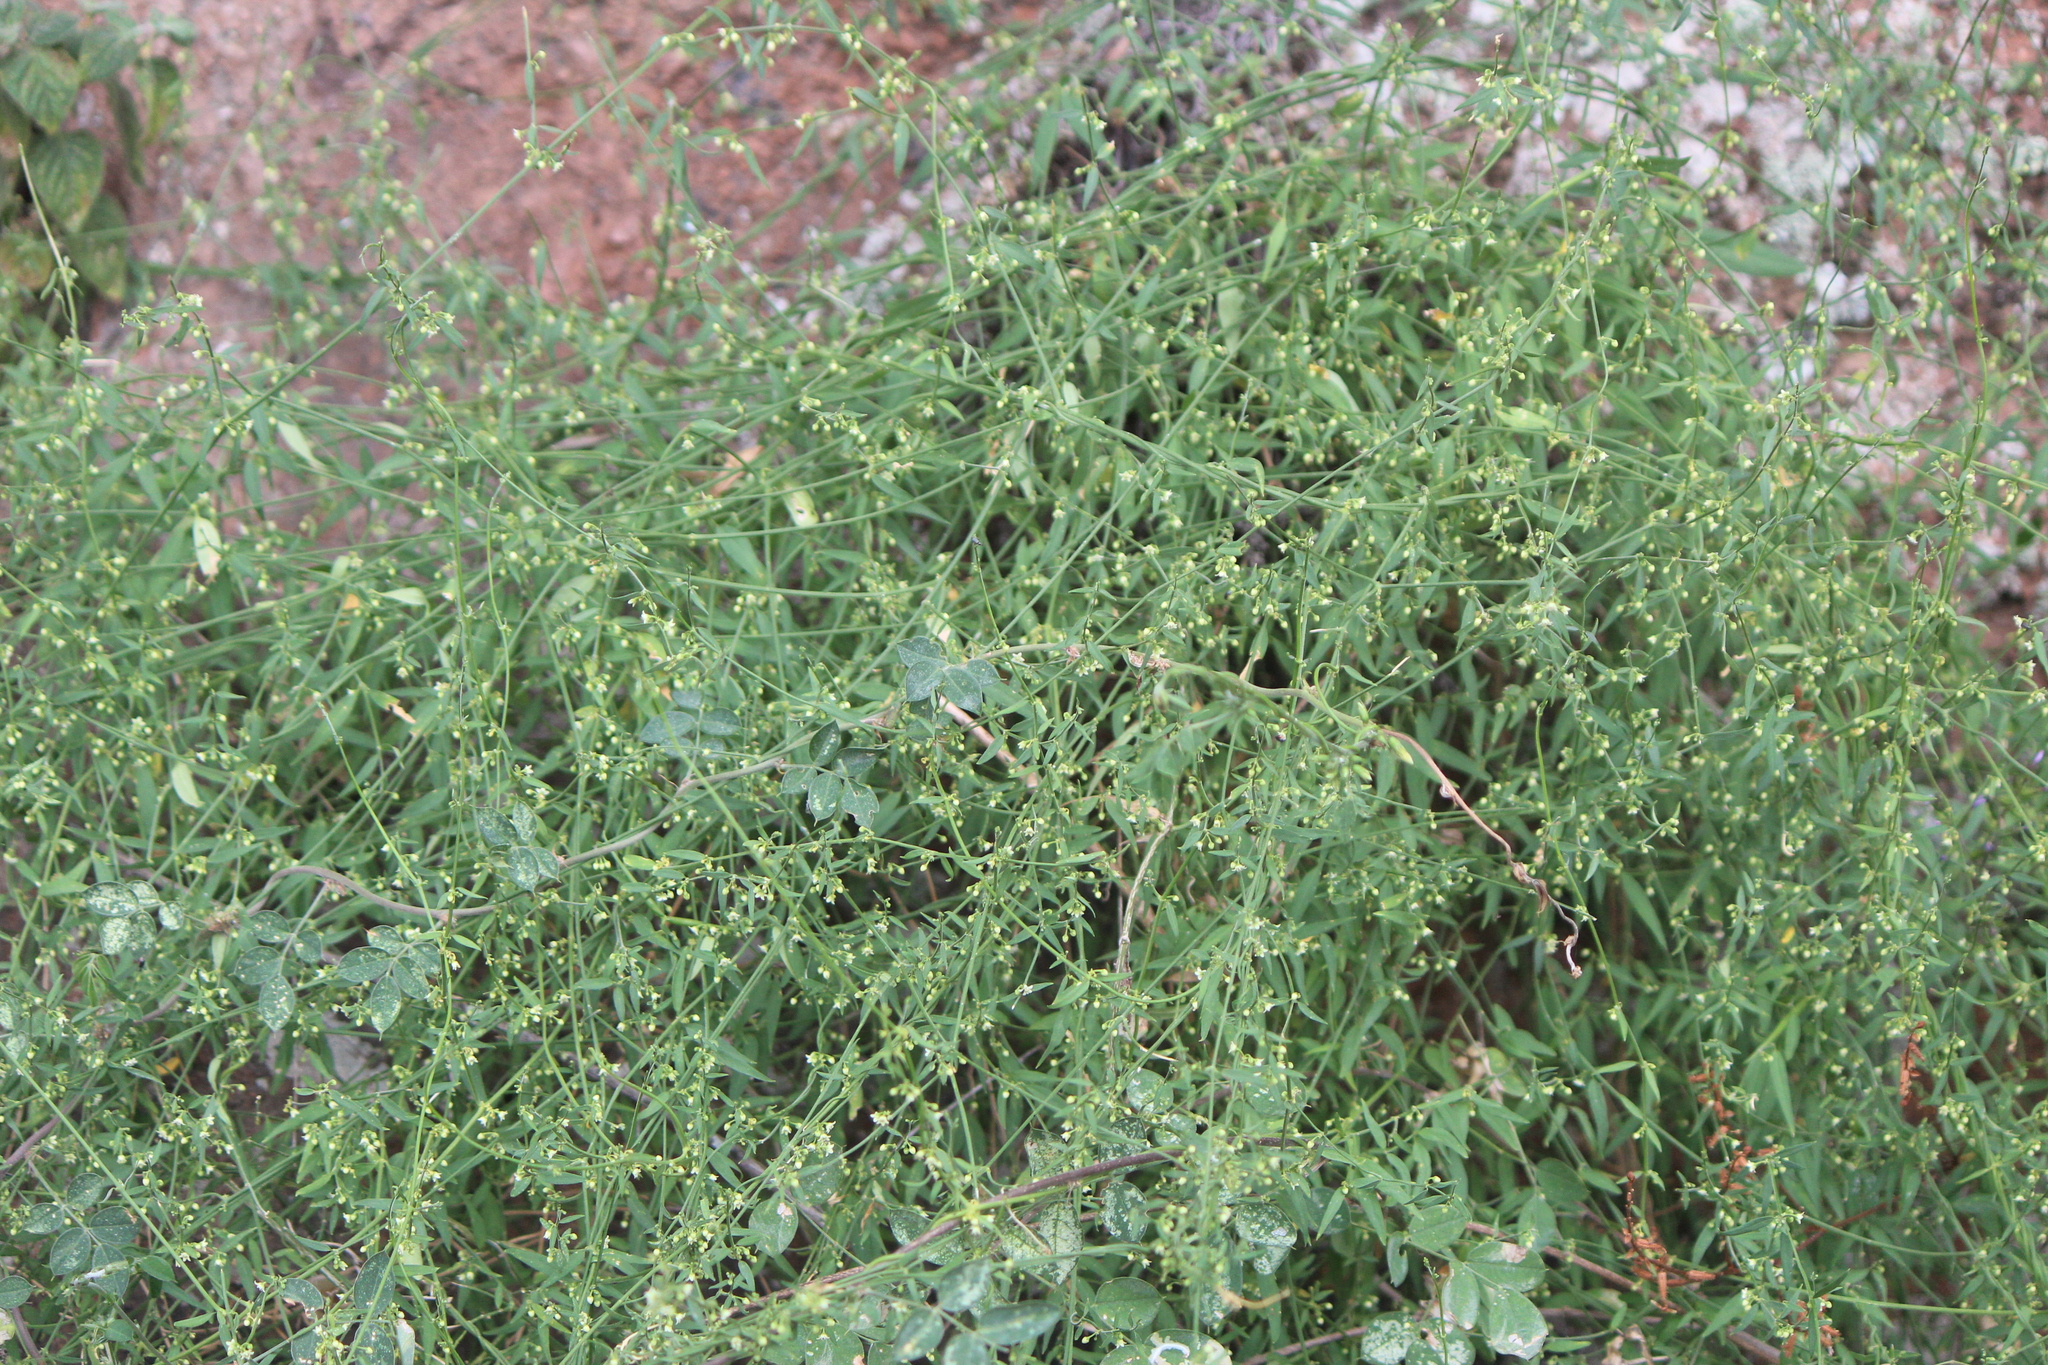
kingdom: Plantae
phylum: Tracheophyta
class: Magnoliopsida
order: Gentianales
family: Apocynaceae
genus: Orthosia
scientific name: Orthosia angustifolia
